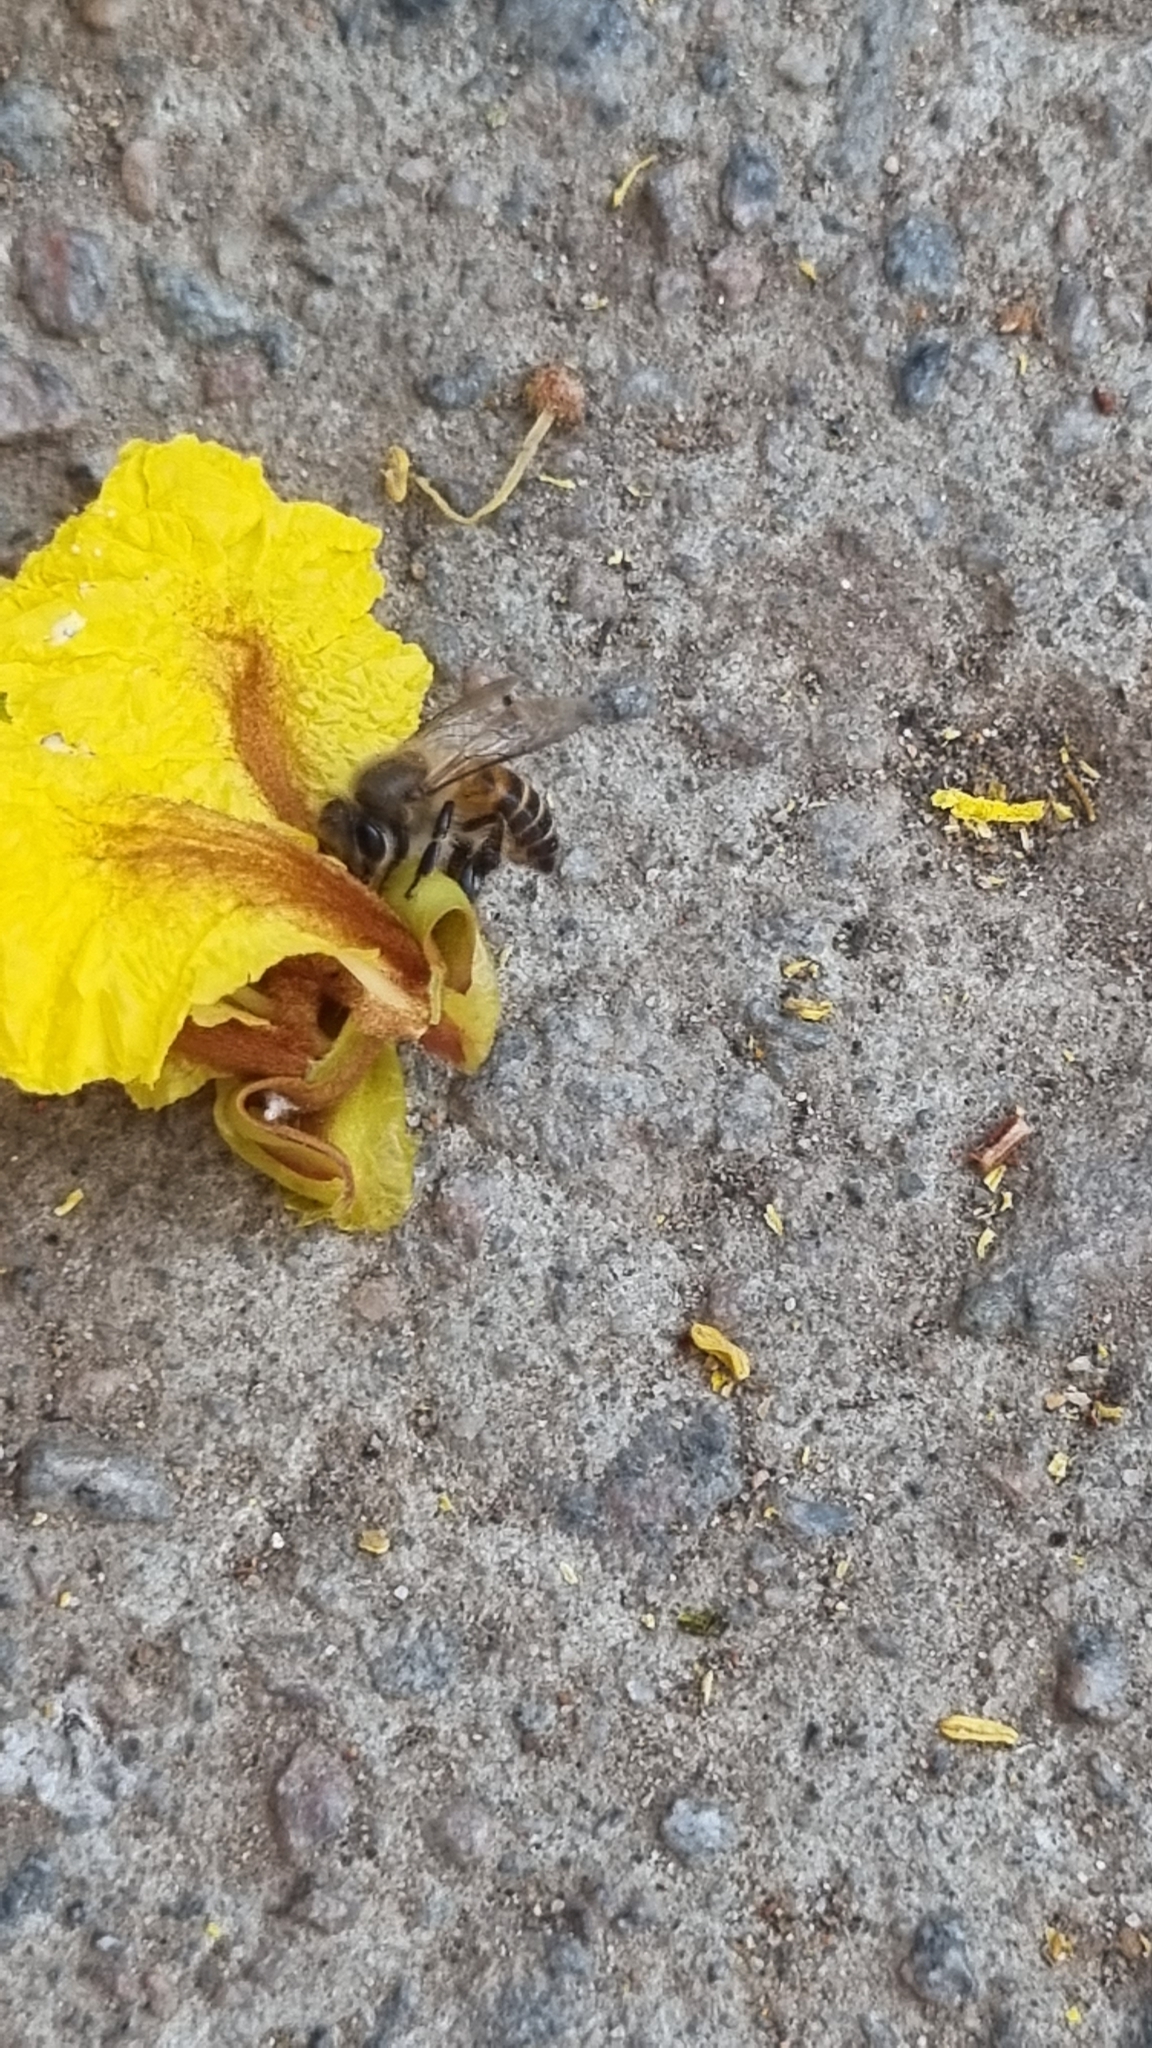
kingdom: Animalia
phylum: Arthropoda
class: Insecta
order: Hymenoptera
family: Apidae
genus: Apis
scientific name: Apis cerana
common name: Honey bee
